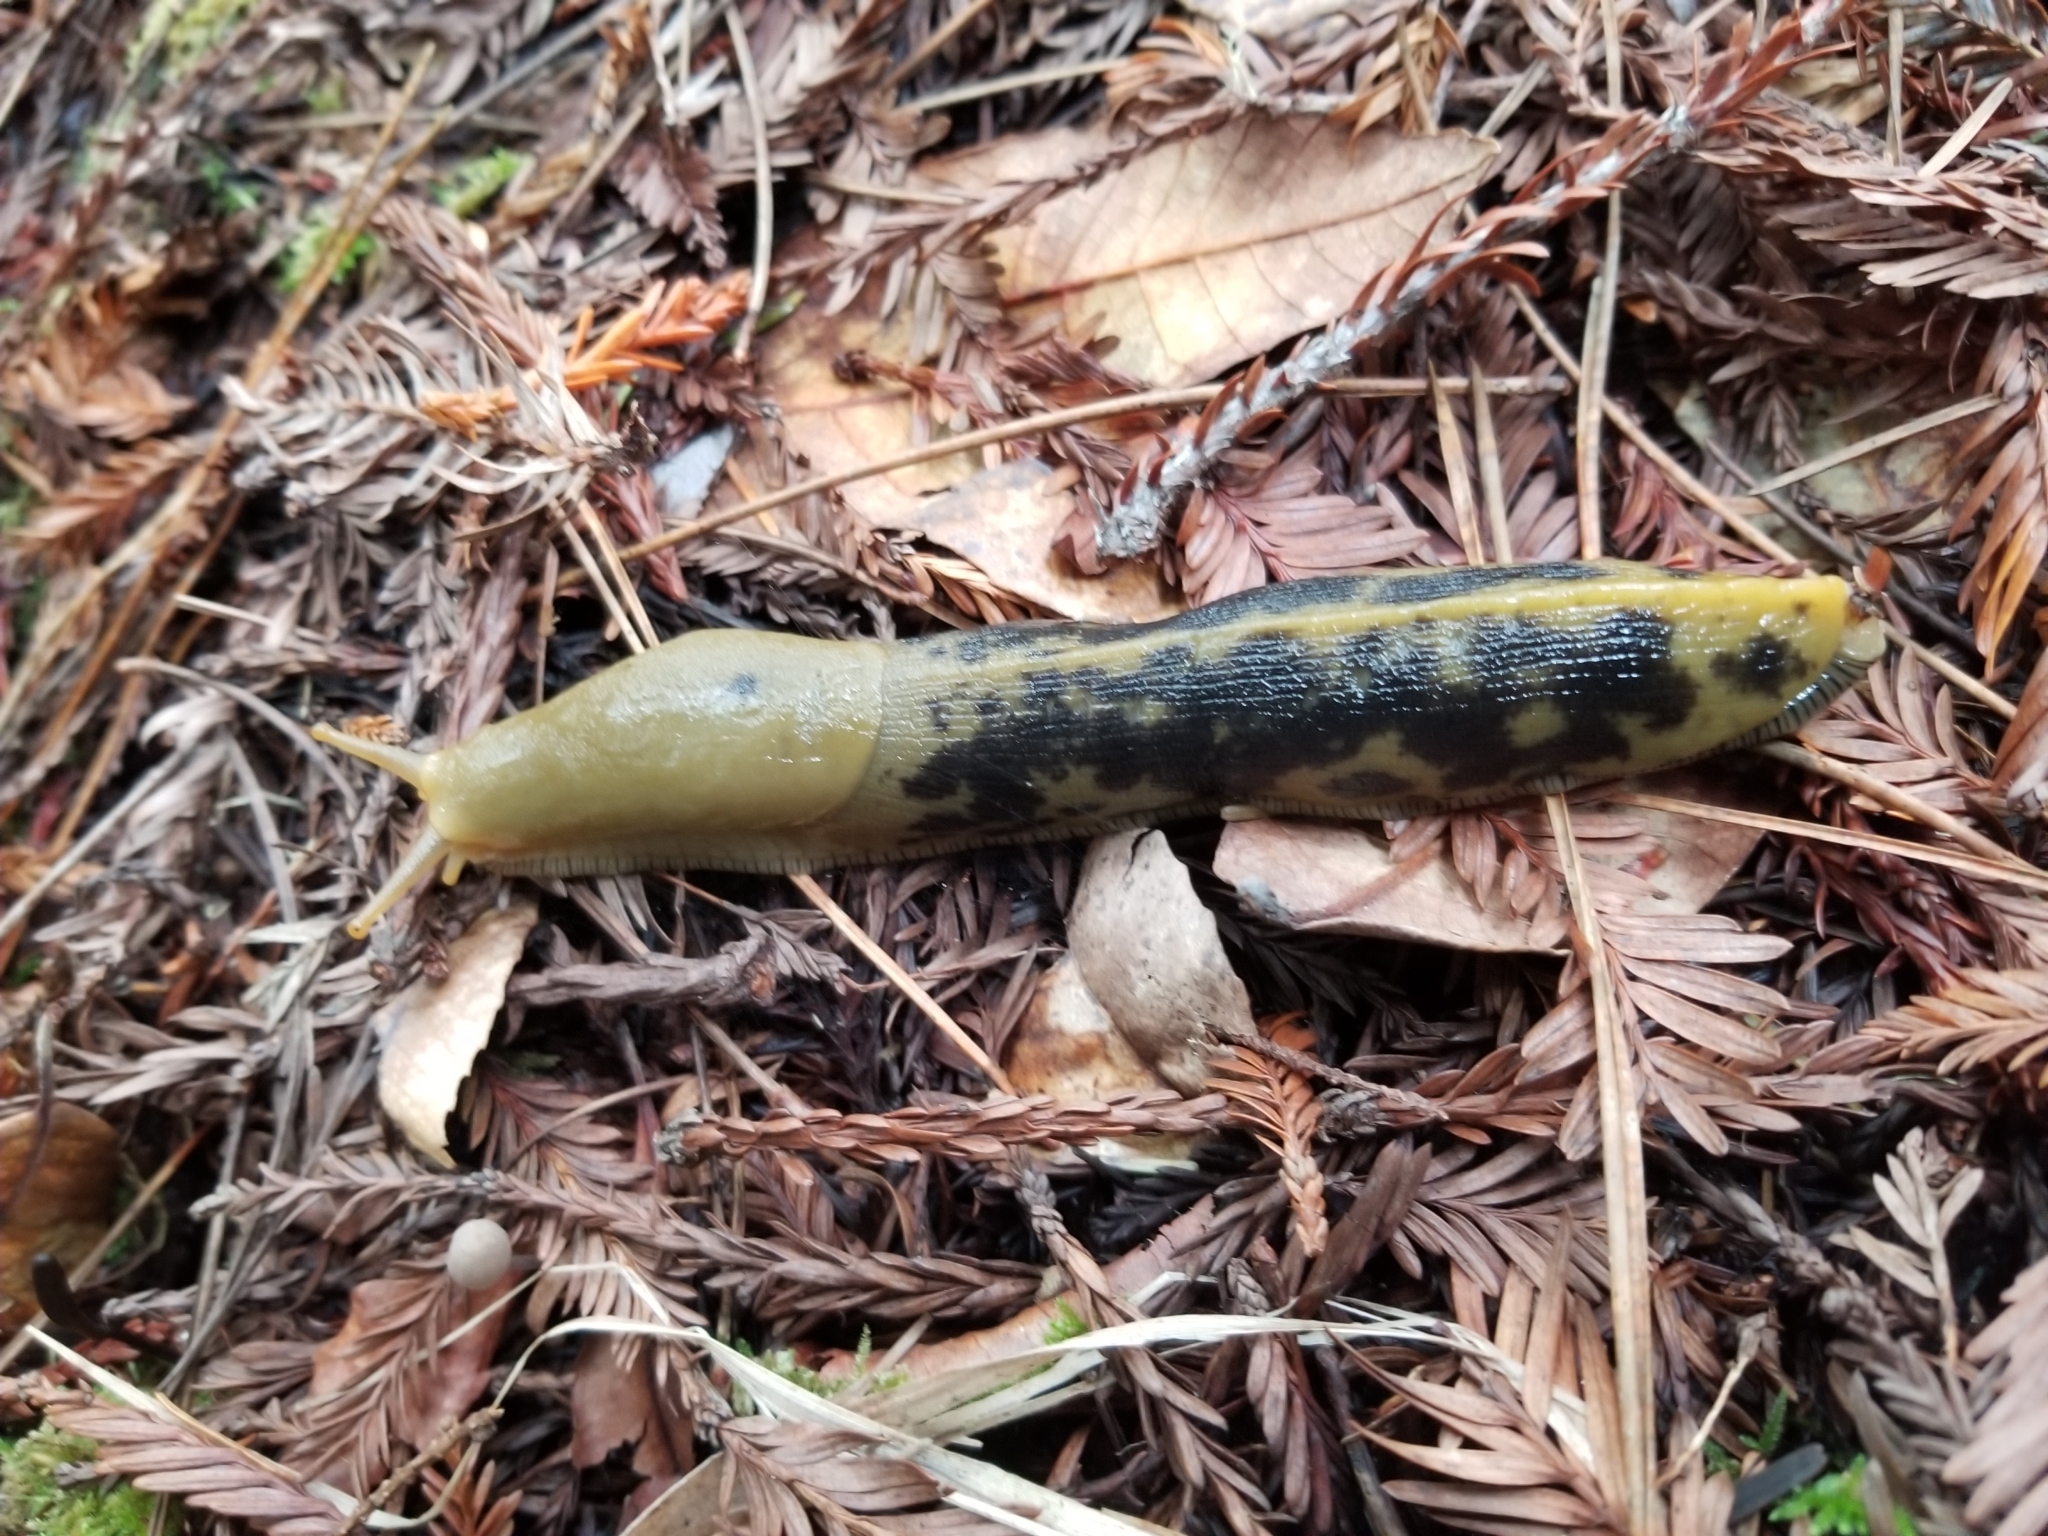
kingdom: Animalia
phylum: Mollusca
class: Gastropoda
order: Stylommatophora
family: Ariolimacidae
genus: Ariolimax
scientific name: Ariolimax buttoni
